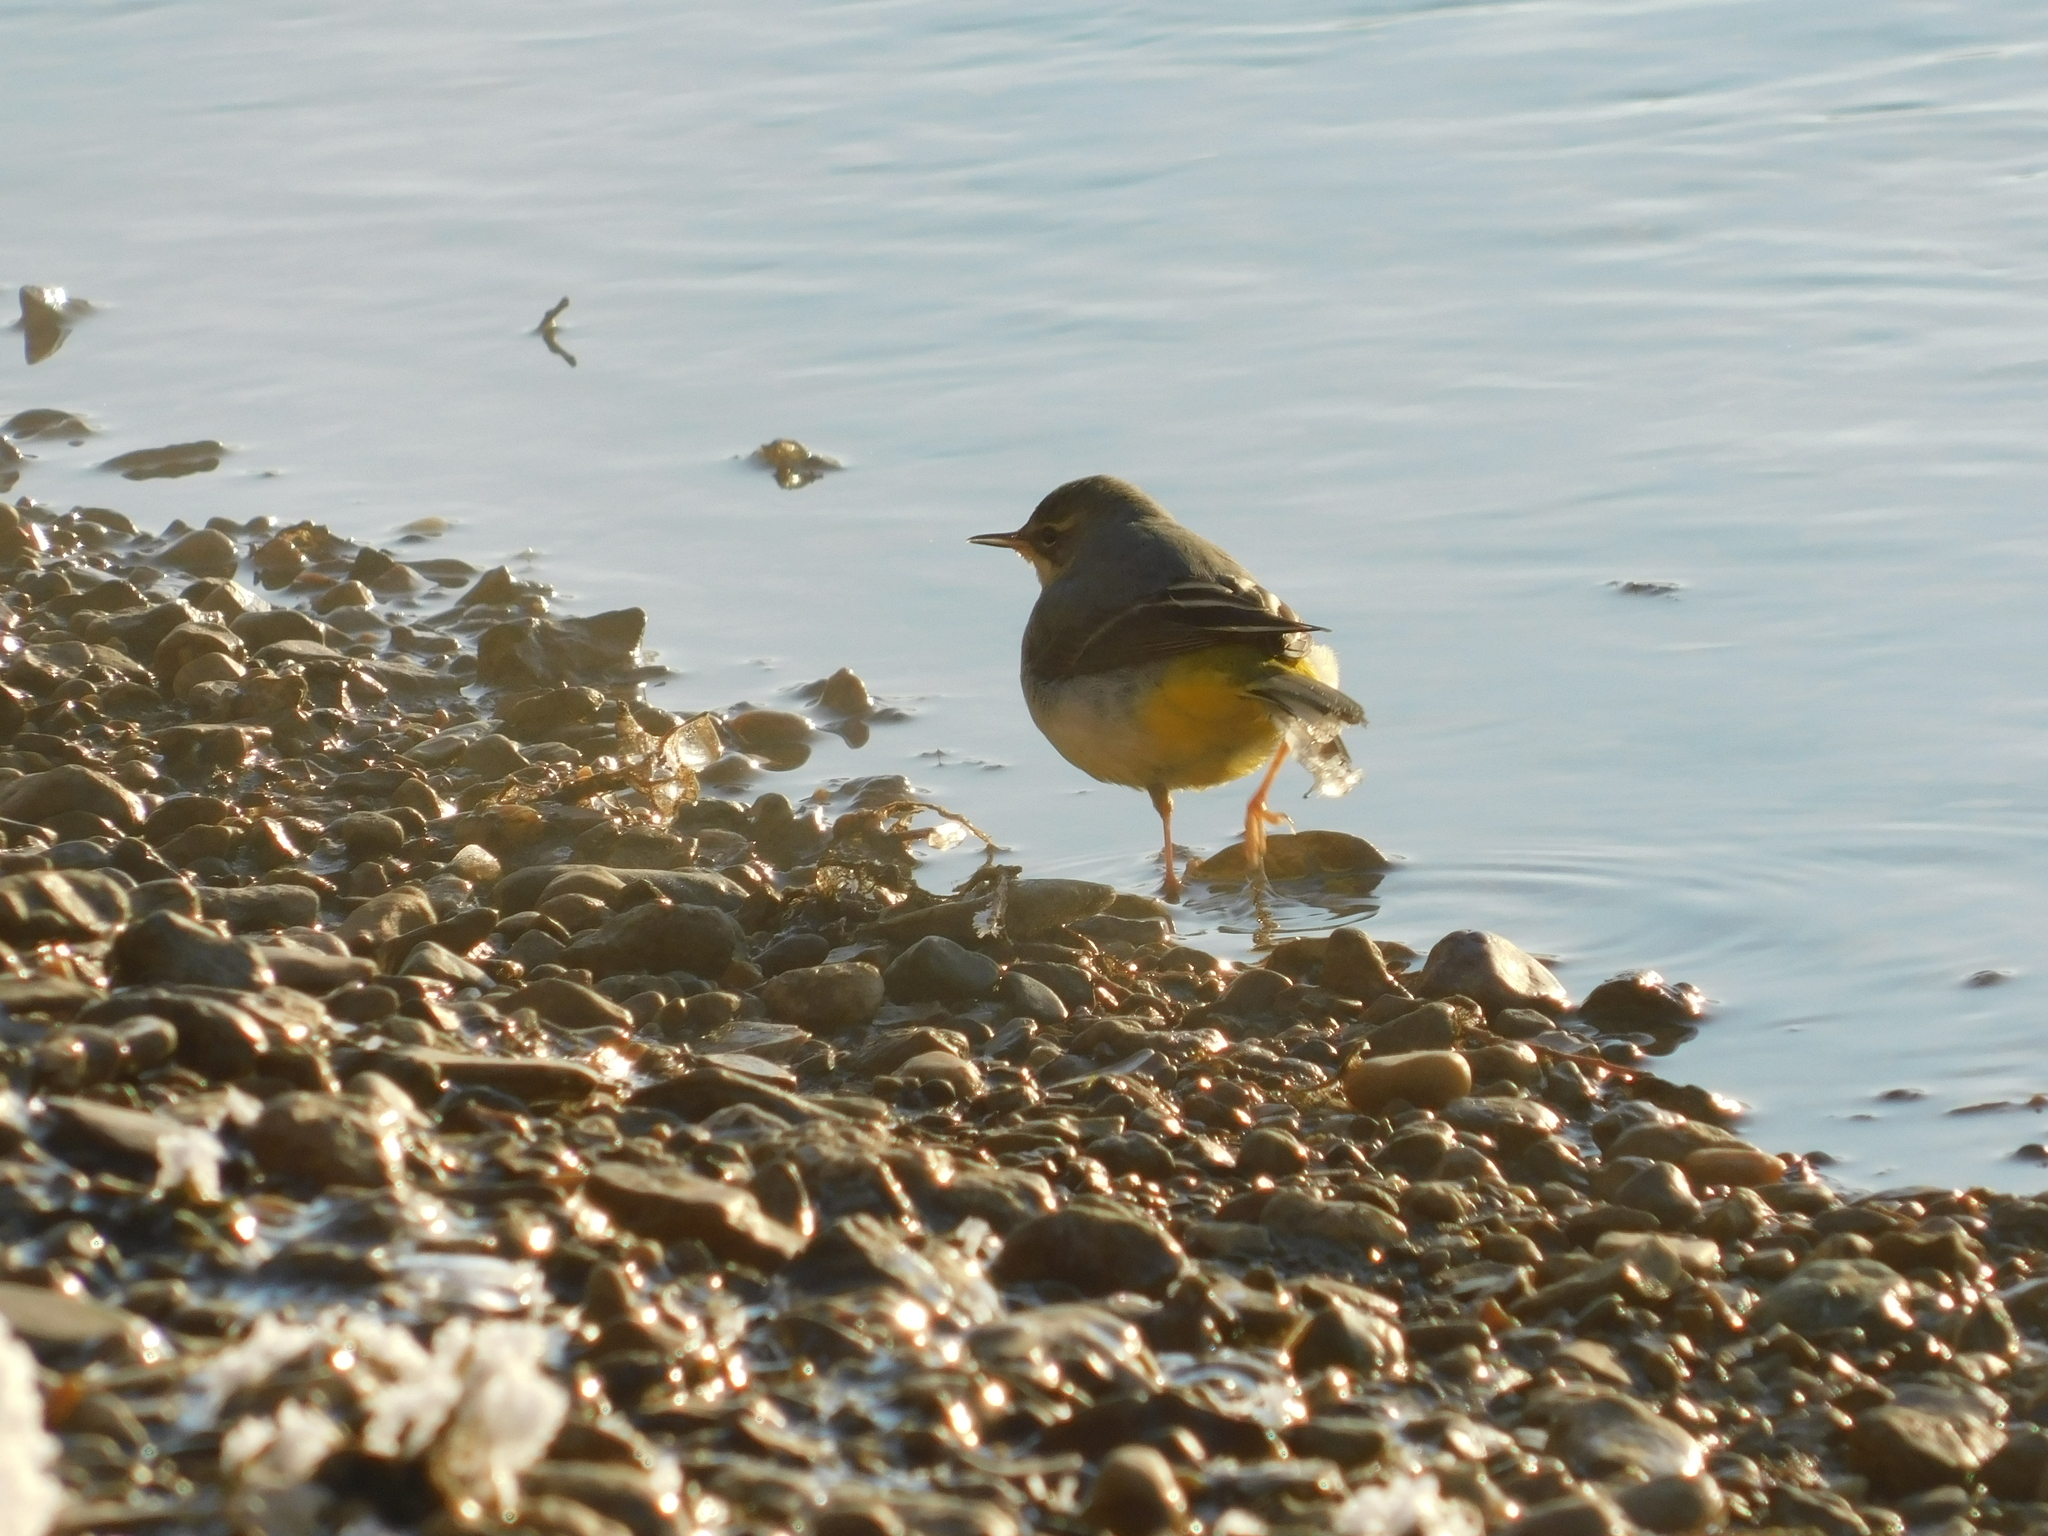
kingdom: Animalia
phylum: Chordata
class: Aves
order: Passeriformes
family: Motacillidae
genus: Motacilla
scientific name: Motacilla cinerea
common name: Grey wagtail
